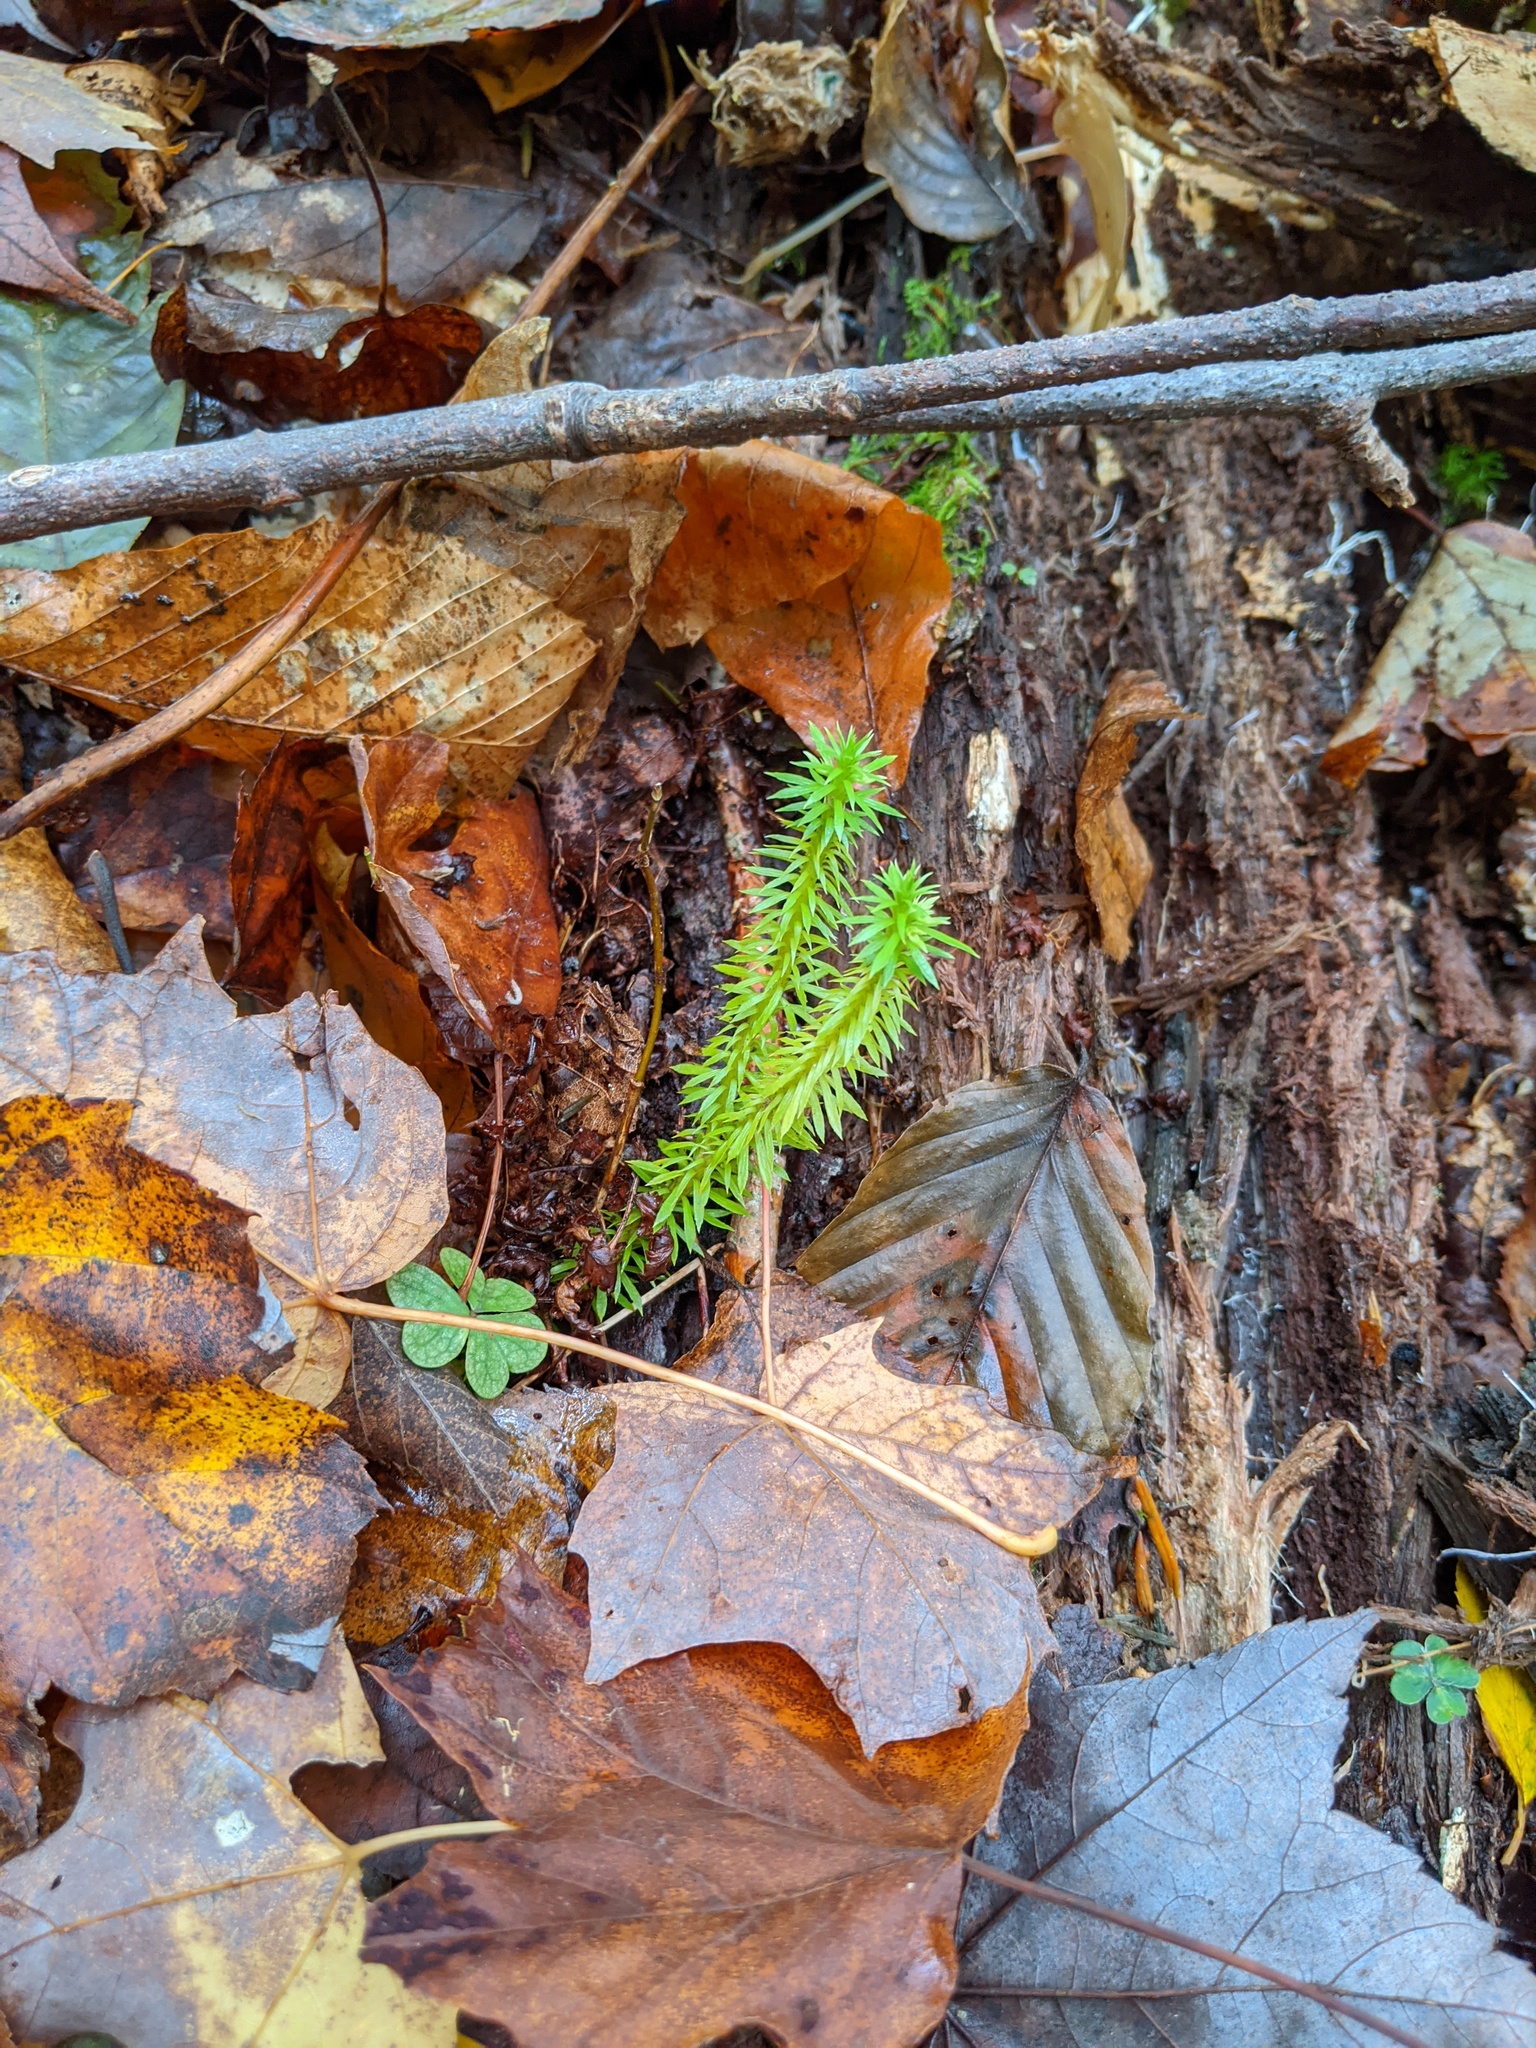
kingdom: Plantae
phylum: Tracheophyta
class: Lycopodiopsida
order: Lycopodiales
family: Lycopodiaceae
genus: Huperzia
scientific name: Huperzia lucidula
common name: Shining clubmoss
